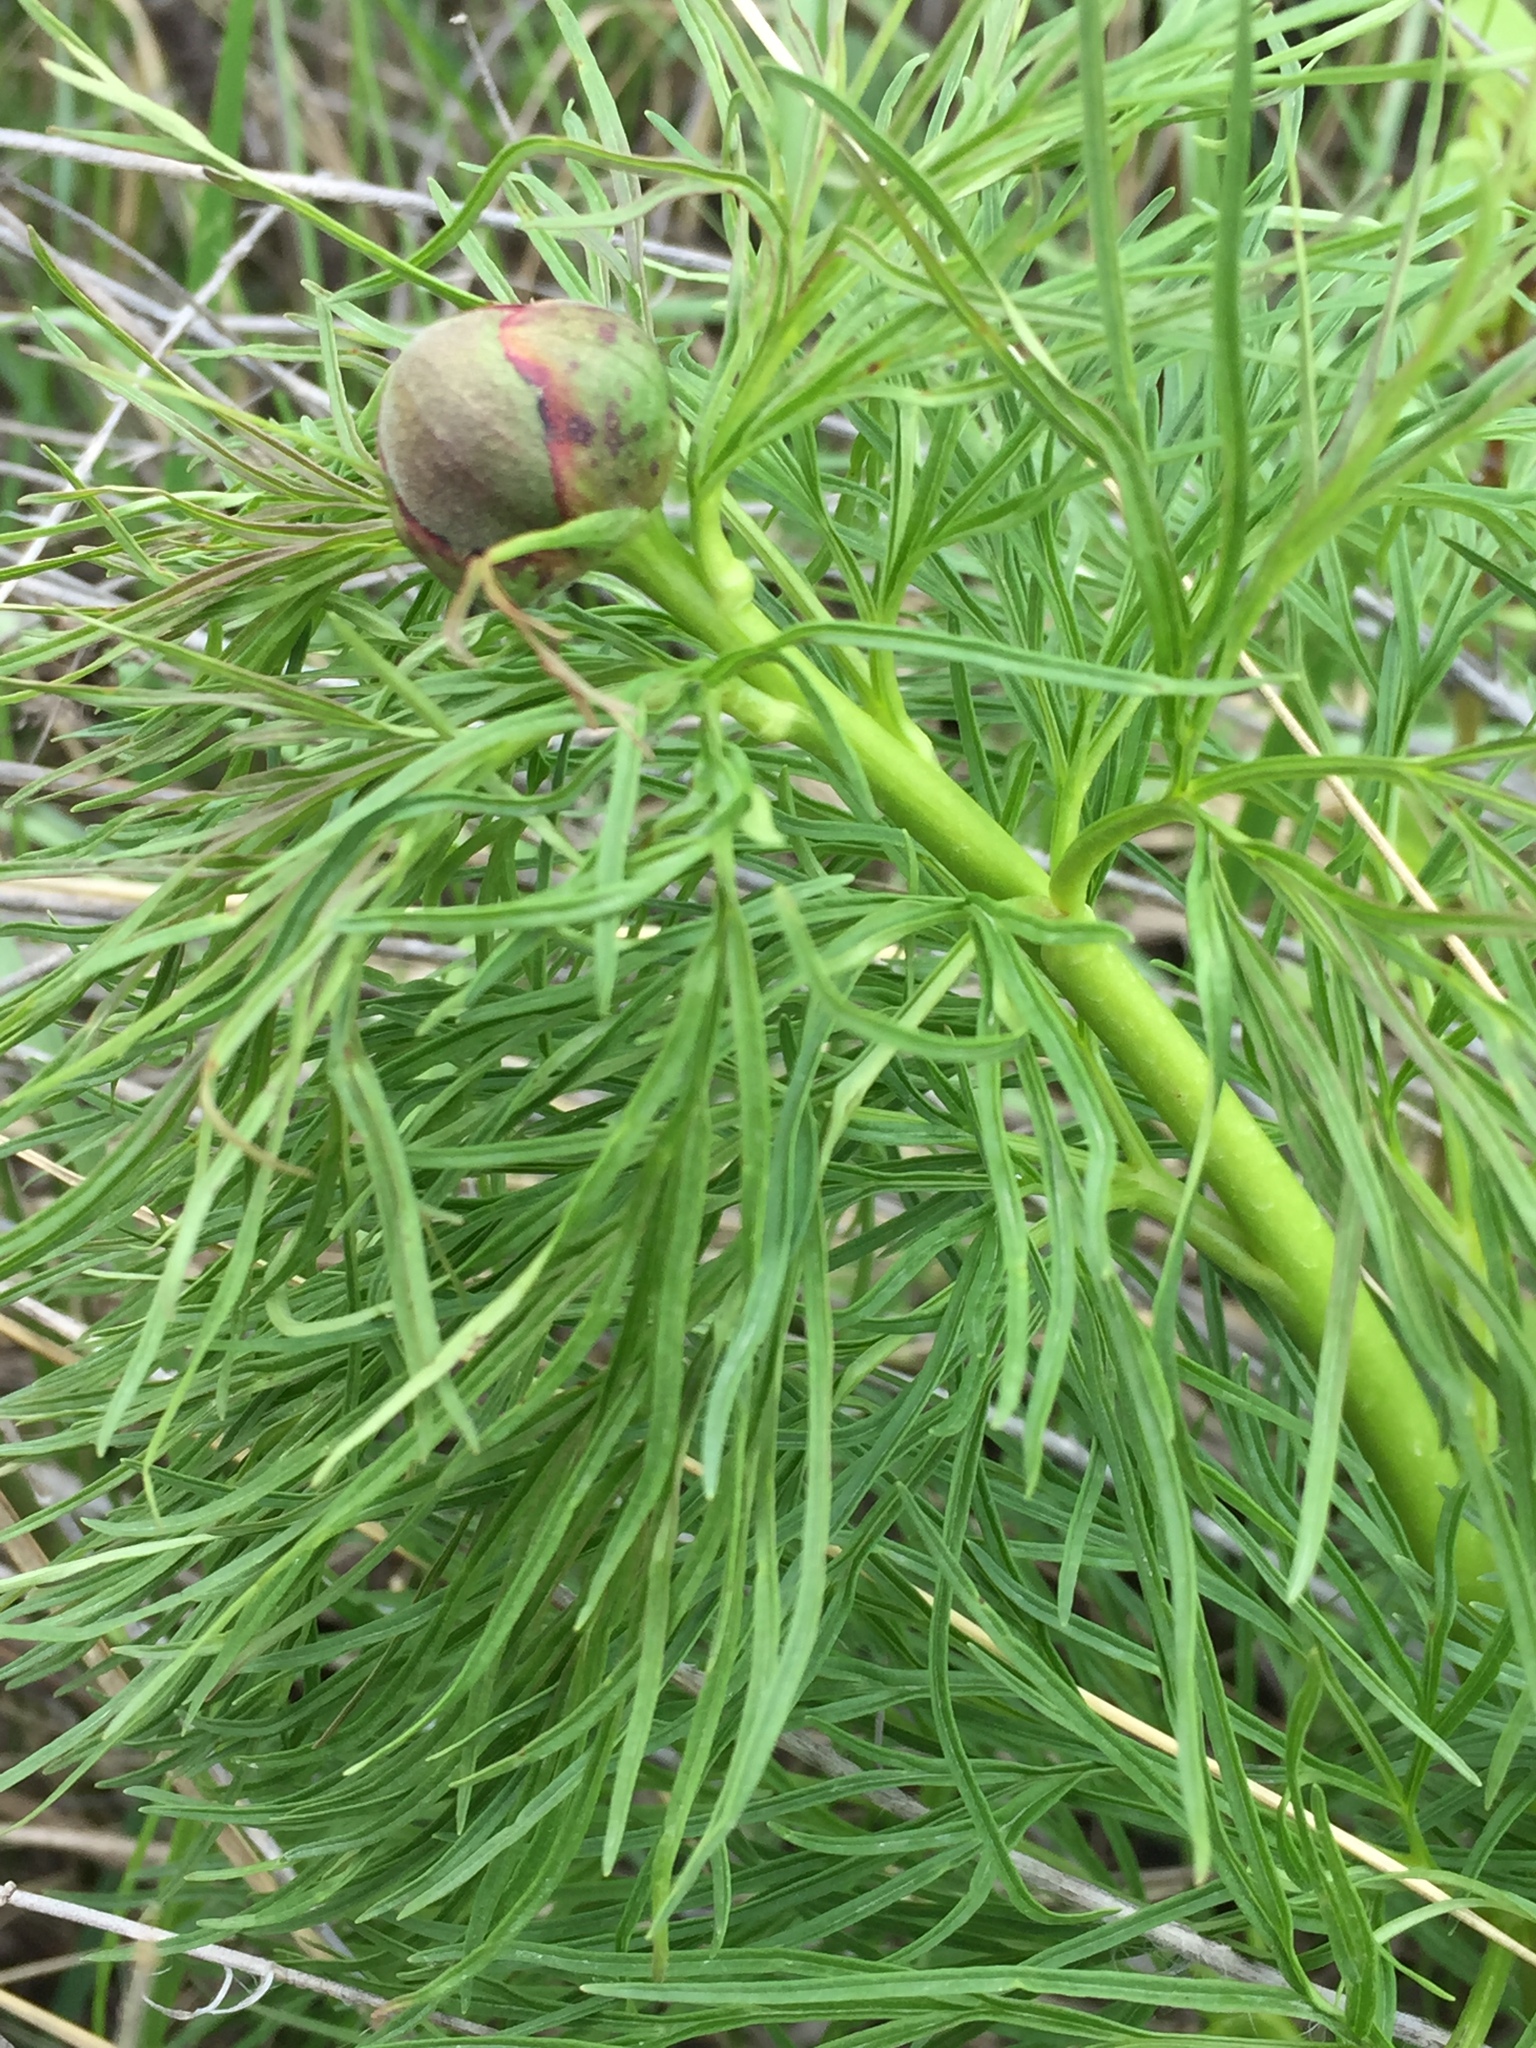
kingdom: Plantae
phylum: Tracheophyta
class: Magnoliopsida
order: Saxifragales
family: Paeoniaceae
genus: Paeonia
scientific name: Paeonia tenuifolia
